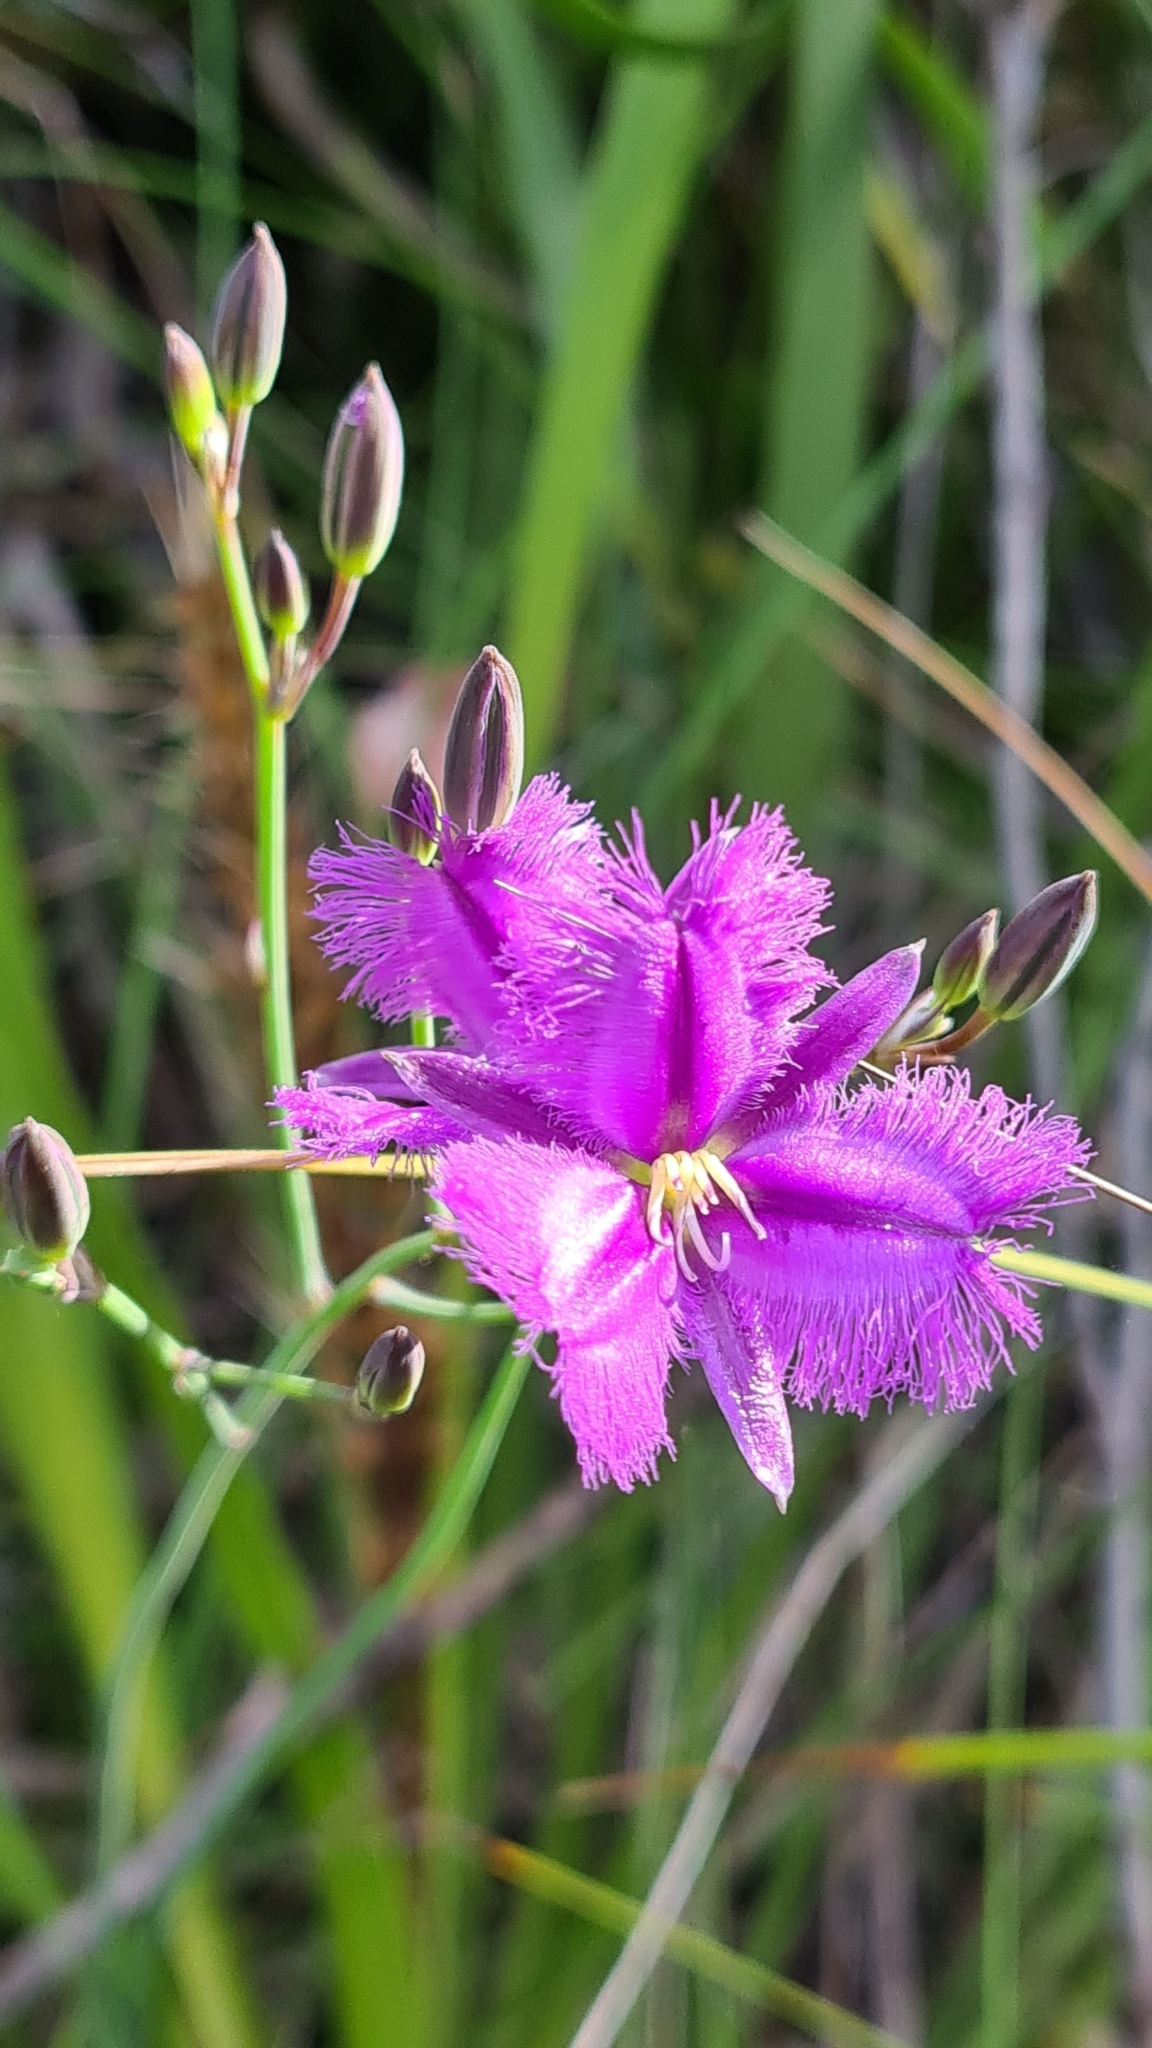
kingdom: Plantae
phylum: Tracheophyta
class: Liliopsida
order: Asparagales
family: Asparagaceae
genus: Thysanotus
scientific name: Thysanotus tuberosus
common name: Common fringed-lily
